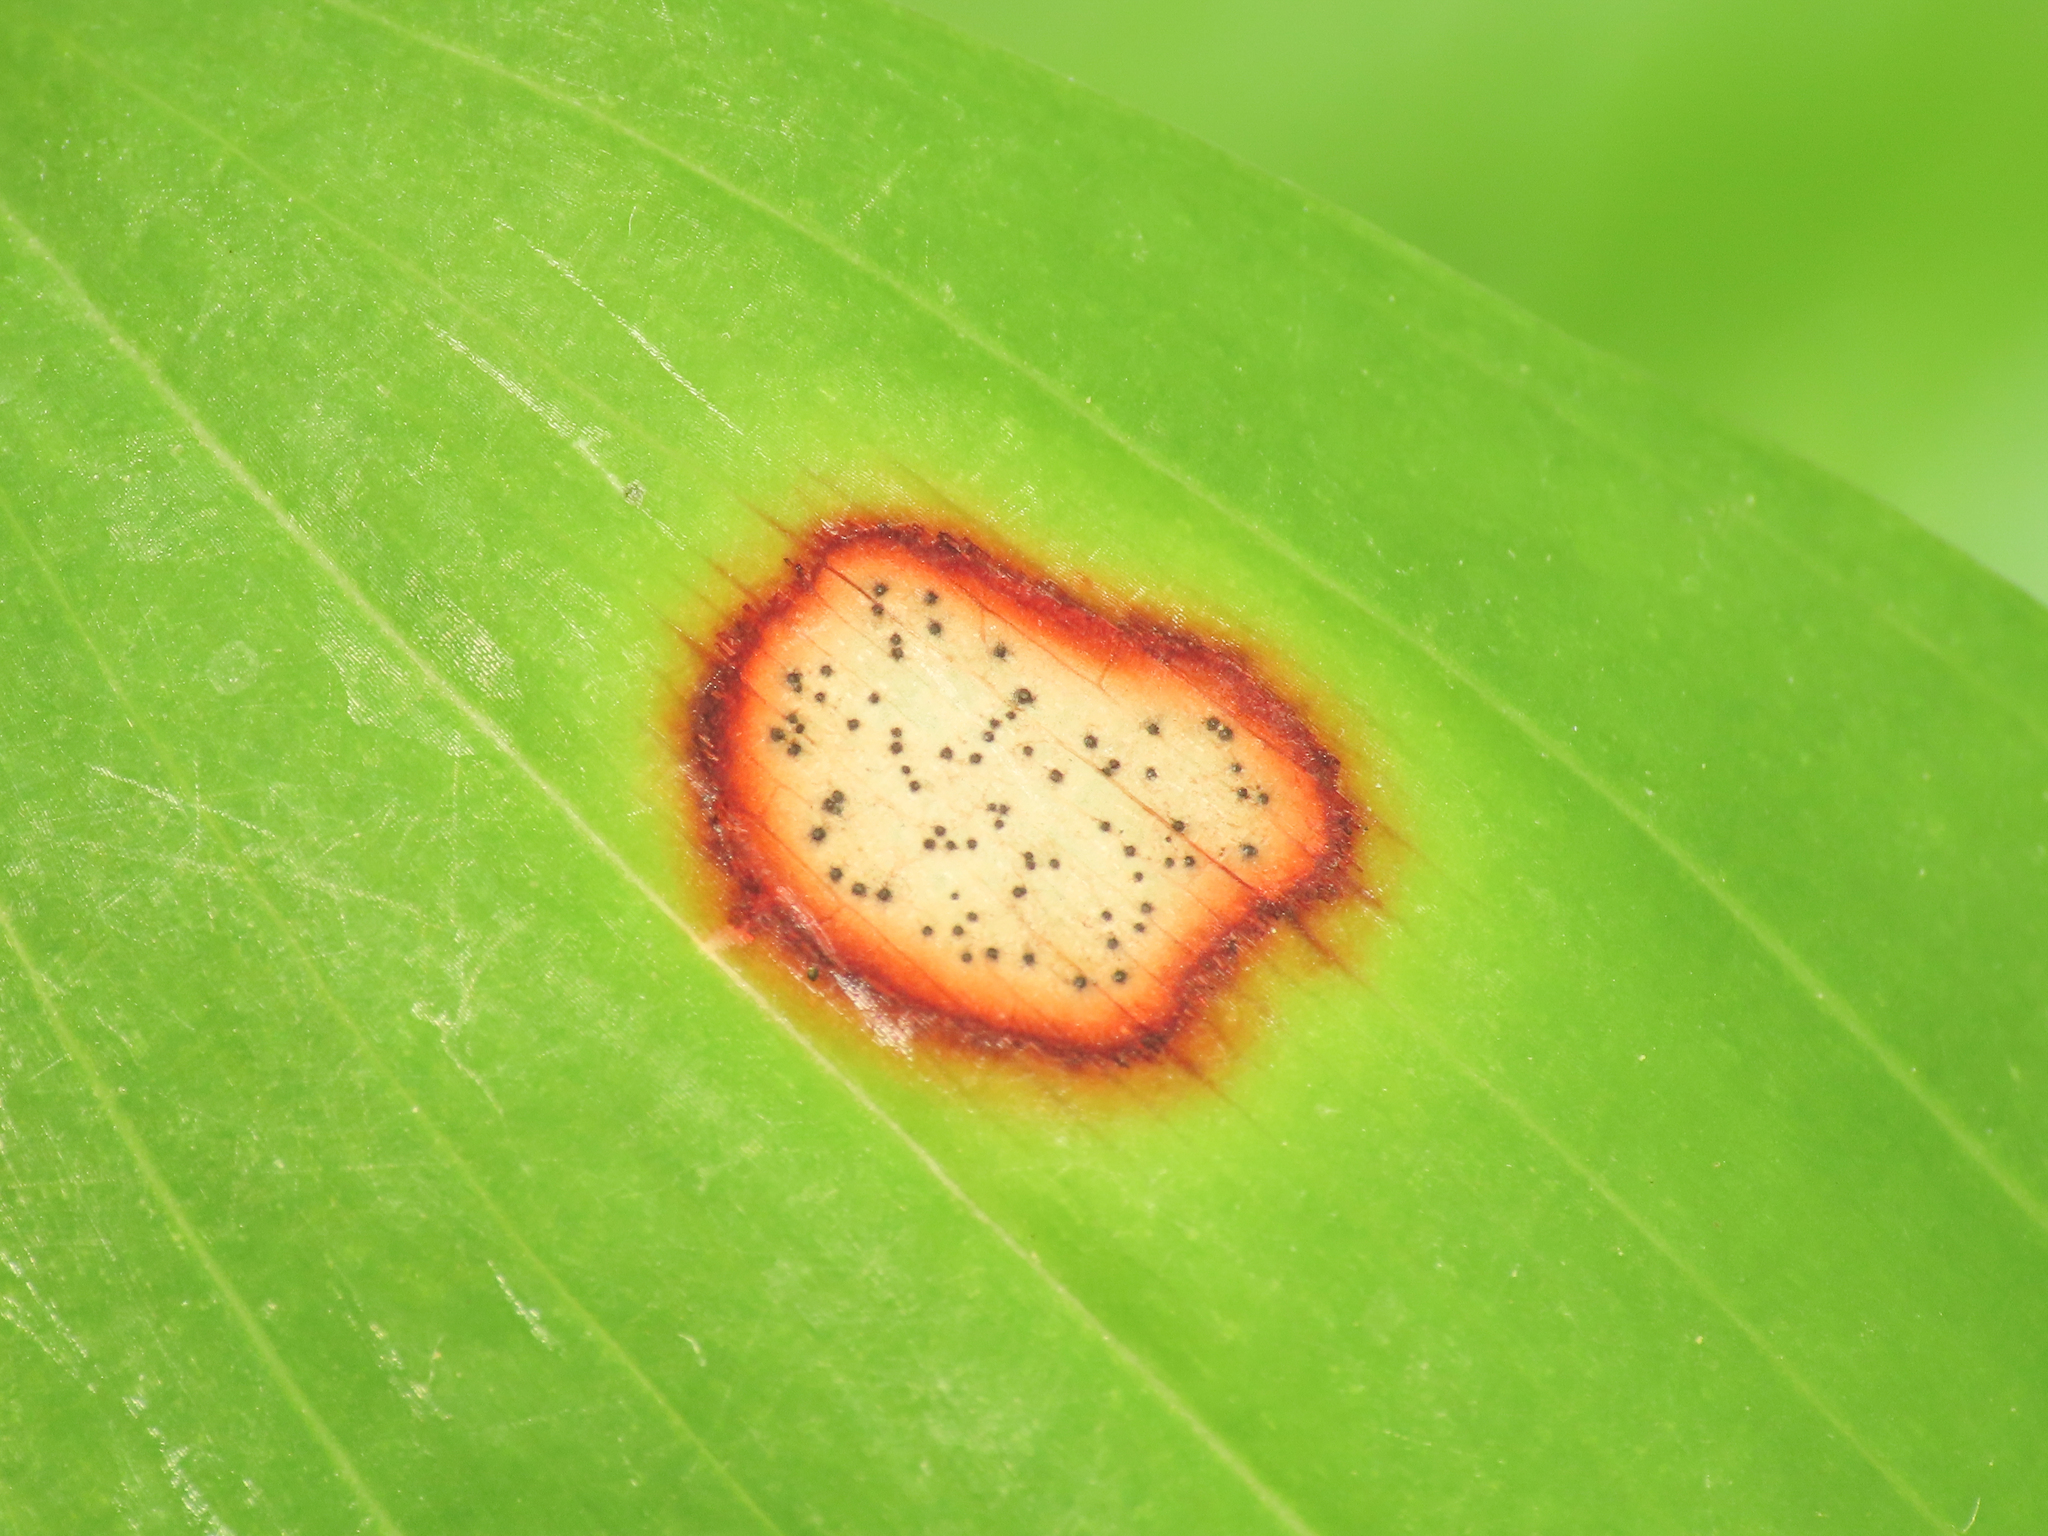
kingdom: Fungi
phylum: Ascomycota
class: Dothideomycetes
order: Botryosphaeriales
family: Phyllostictaceae
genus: Phyllosticta
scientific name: Phyllosticta convallariae
